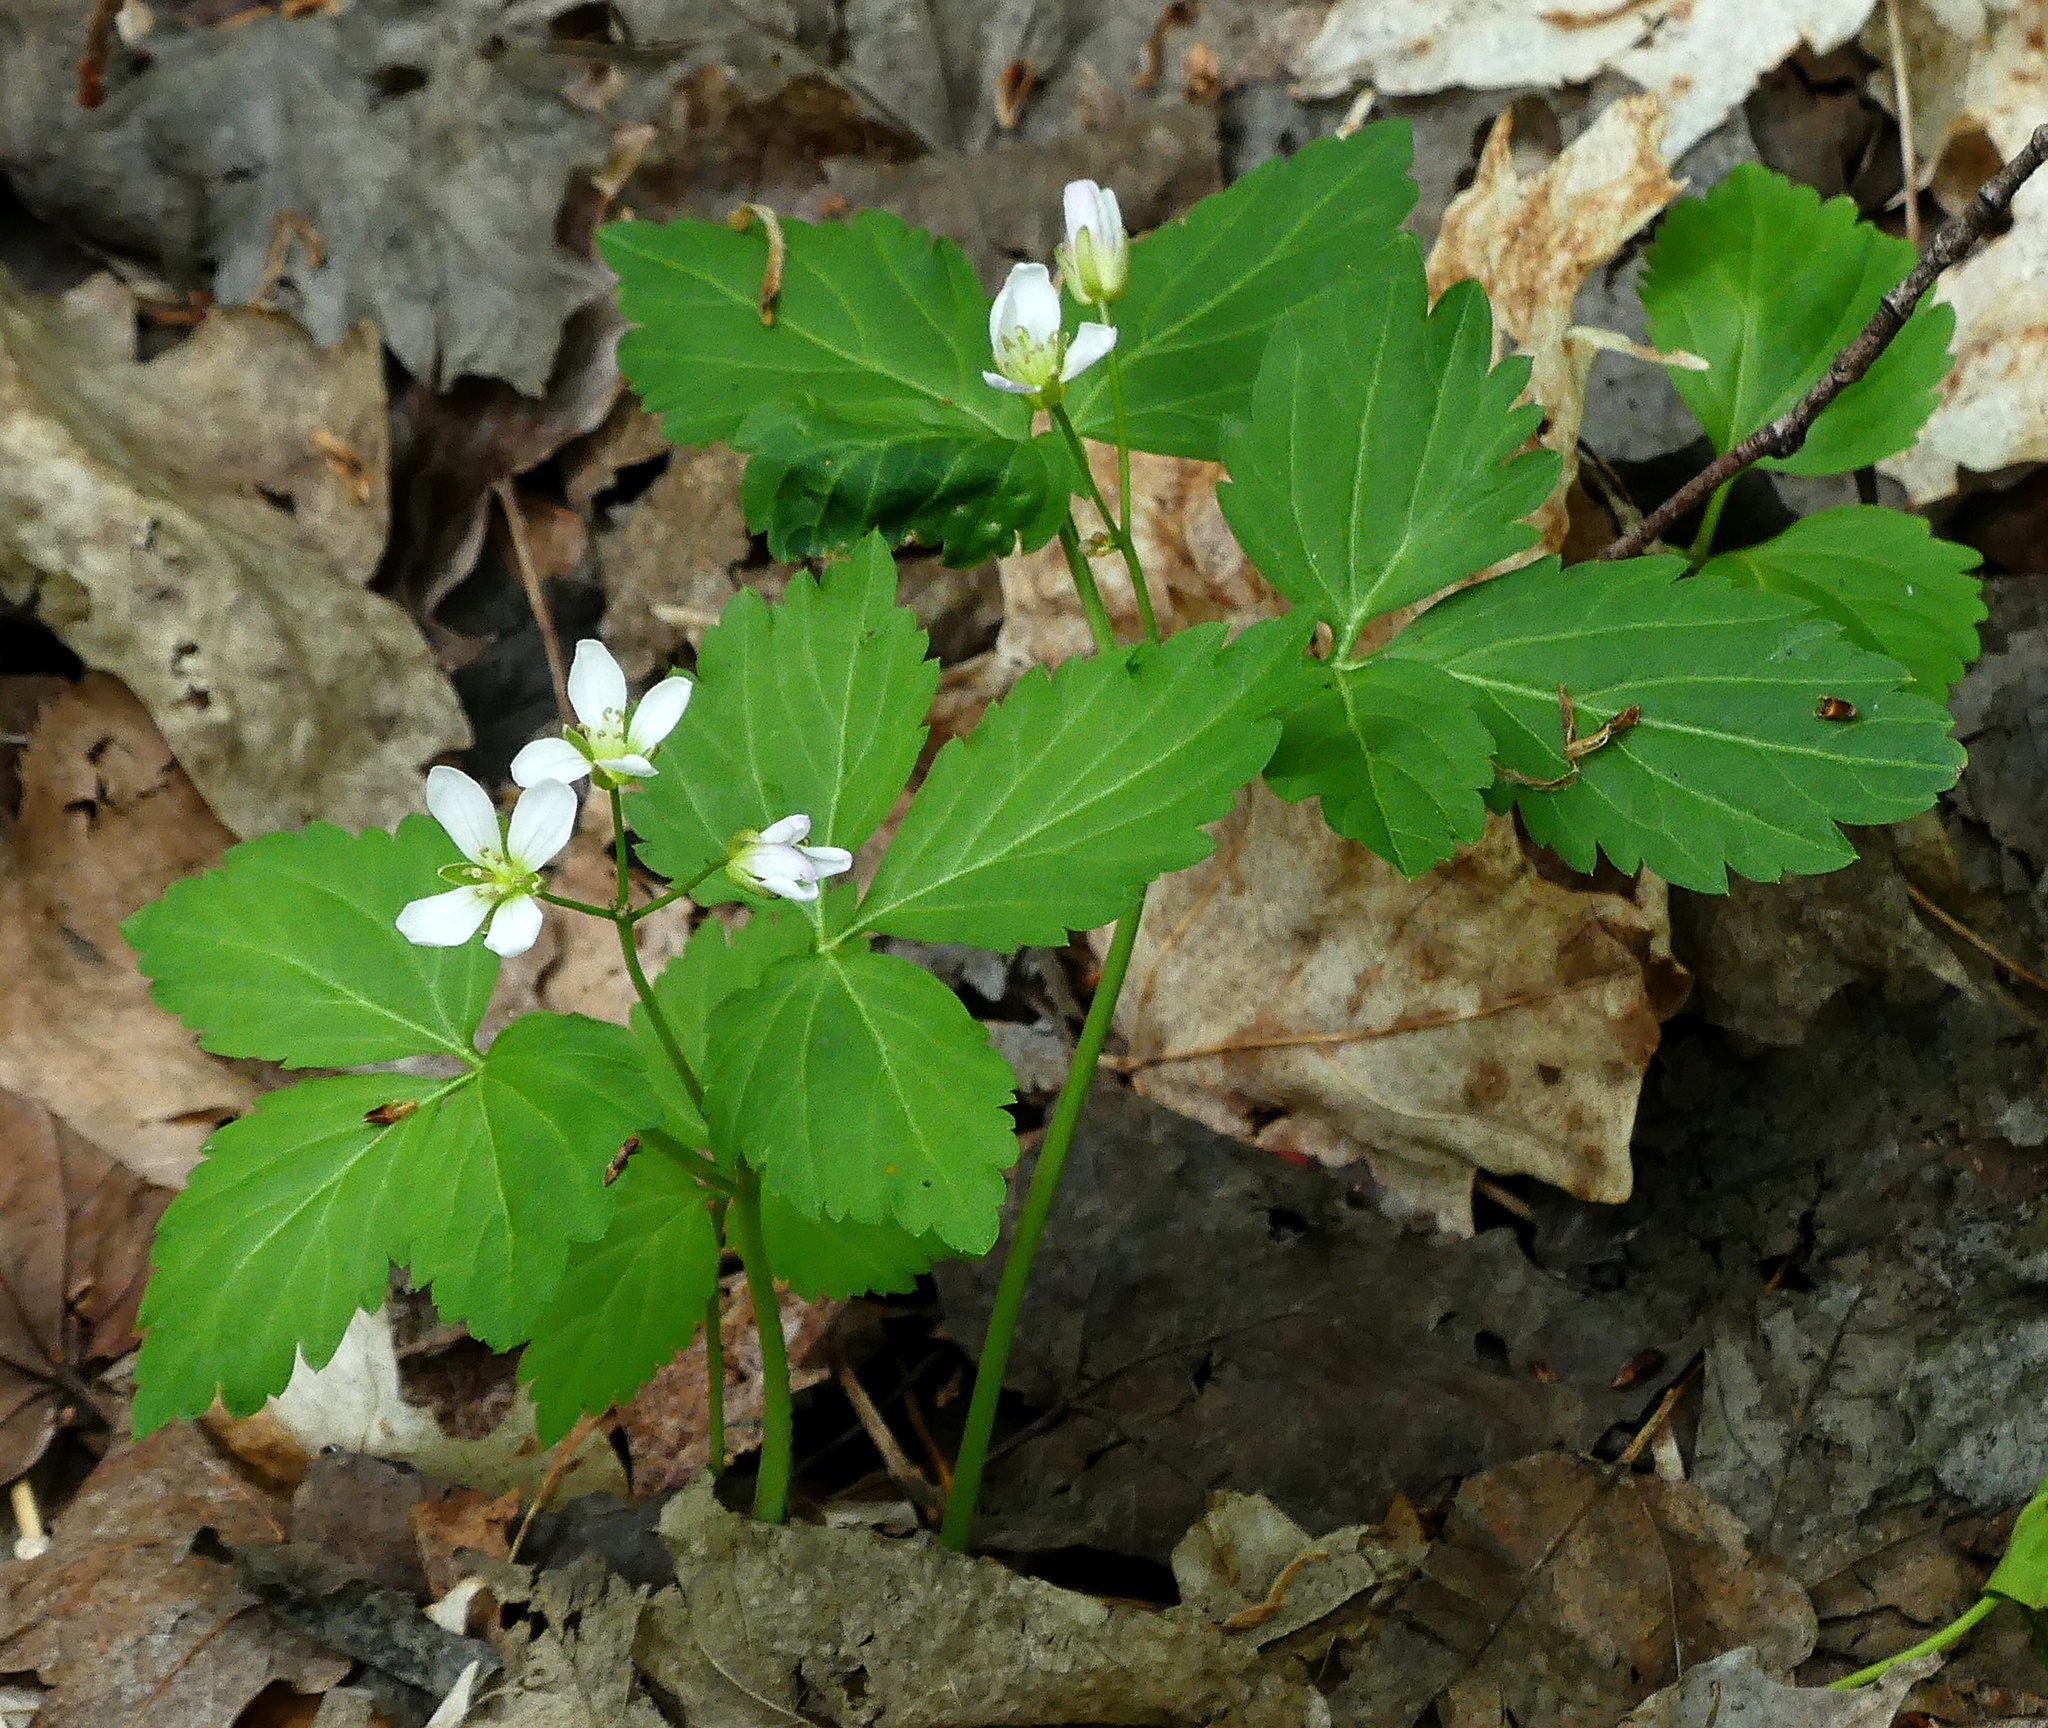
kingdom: Plantae
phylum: Tracheophyta
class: Magnoliopsida
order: Brassicales
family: Brassicaceae
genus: Cardamine
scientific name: Cardamine diphylla
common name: Broad-leaved toothwort
